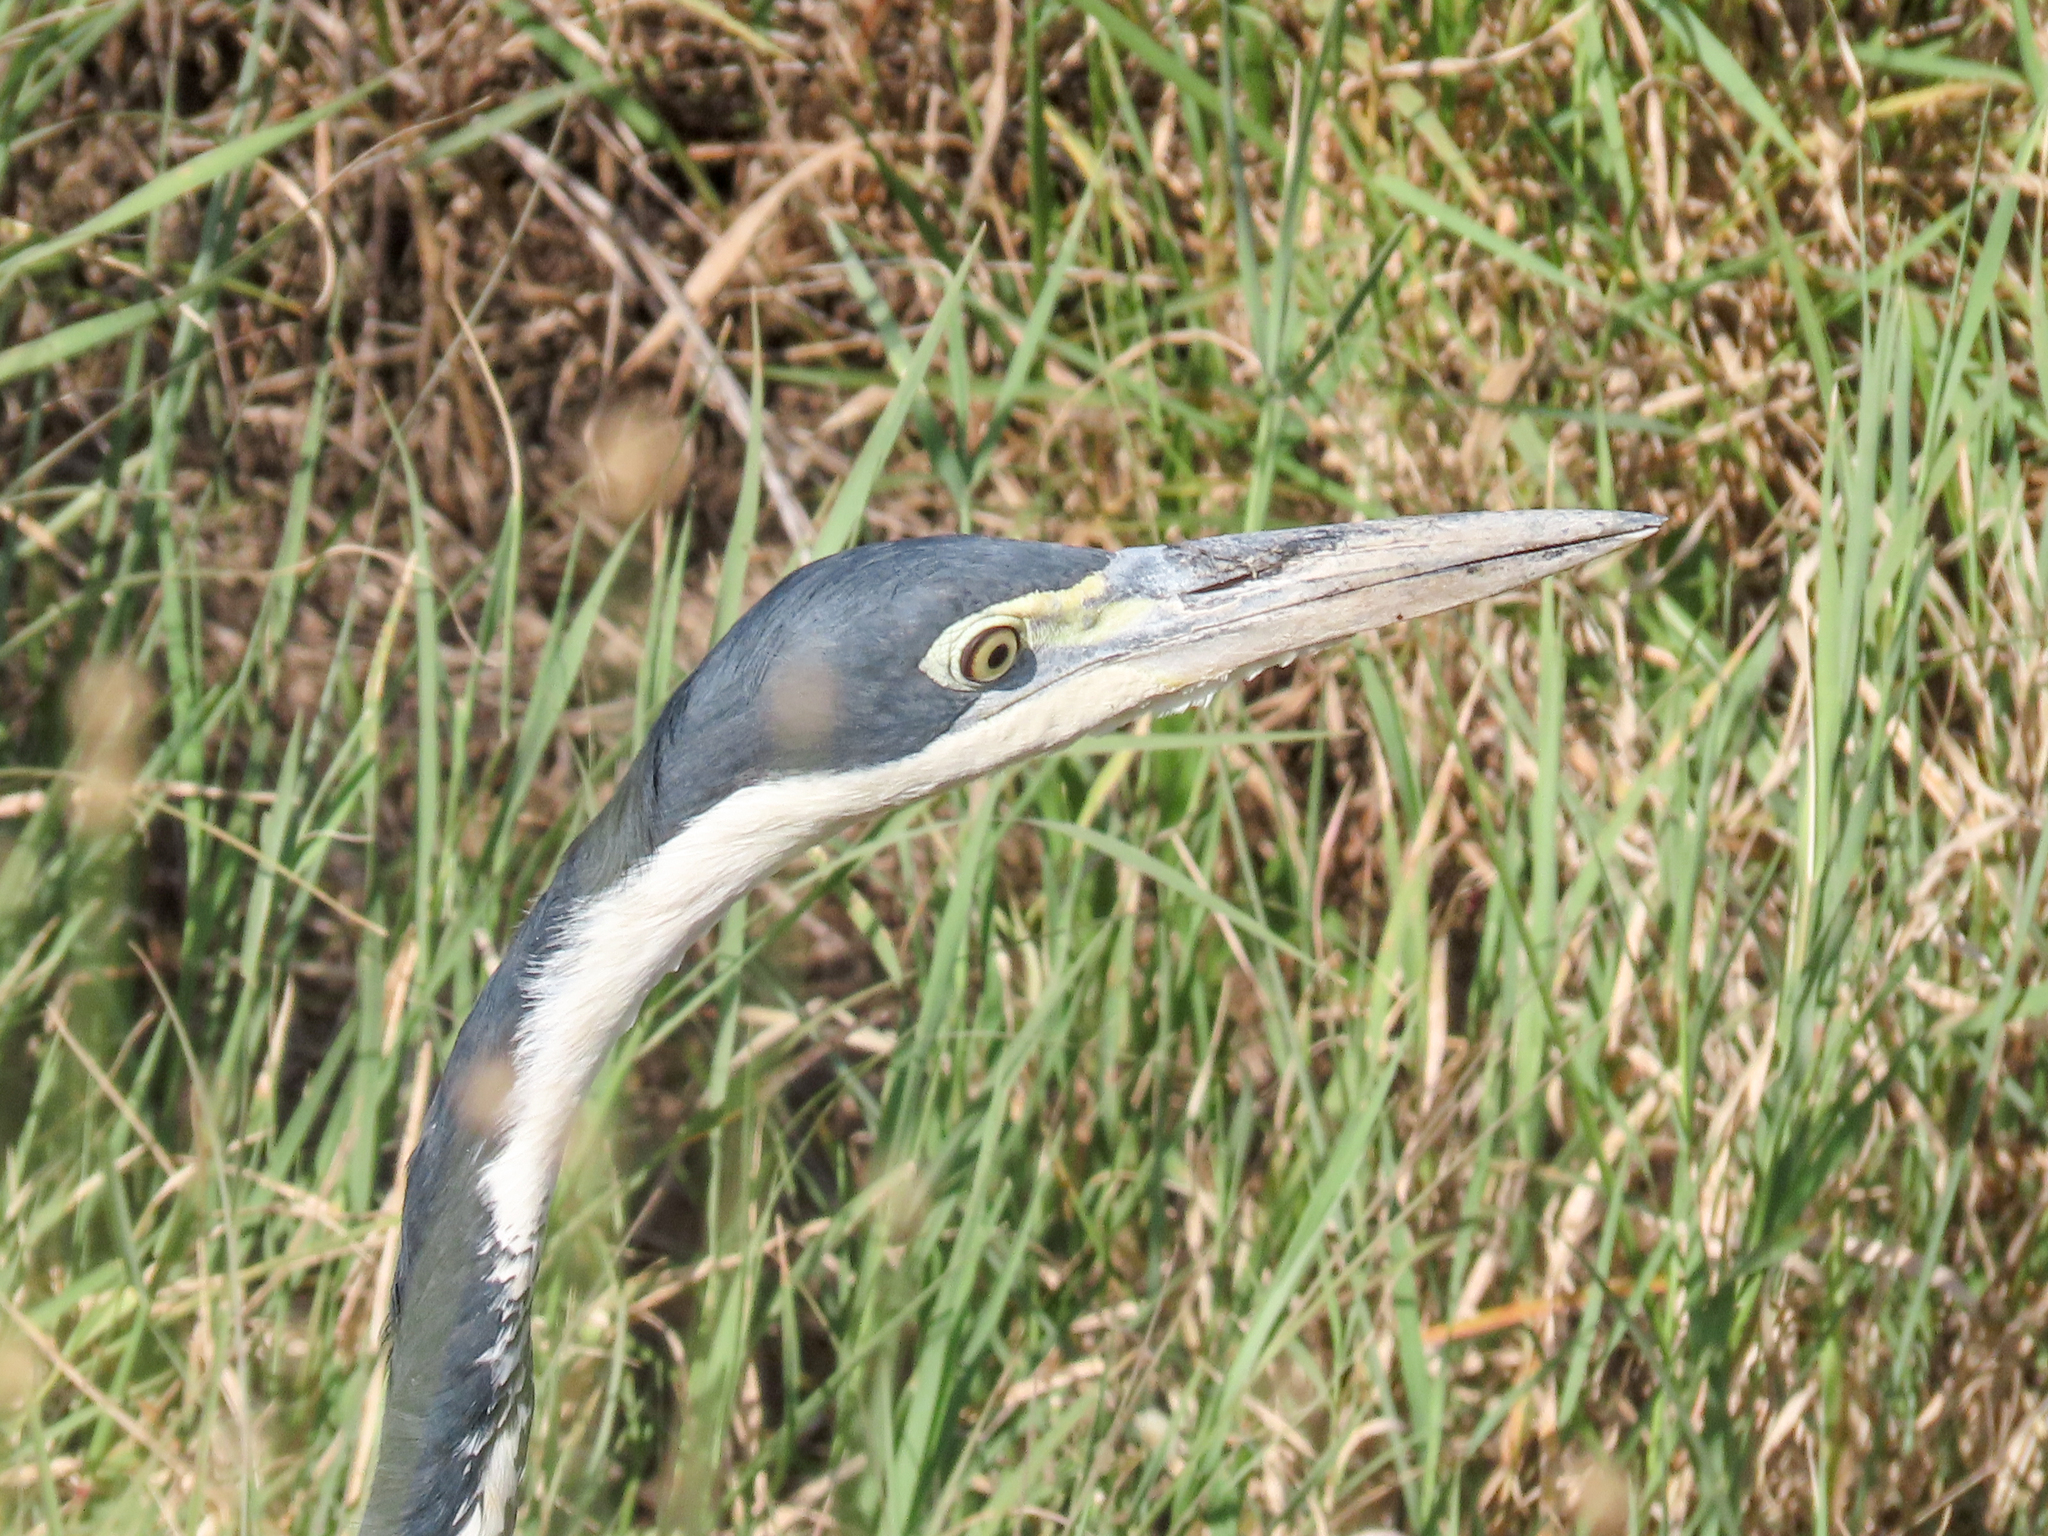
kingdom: Animalia
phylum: Chordata
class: Aves
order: Pelecaniformes
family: Ardeidae
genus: Ardea
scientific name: Ardea melanocephala
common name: Black-headed heron
